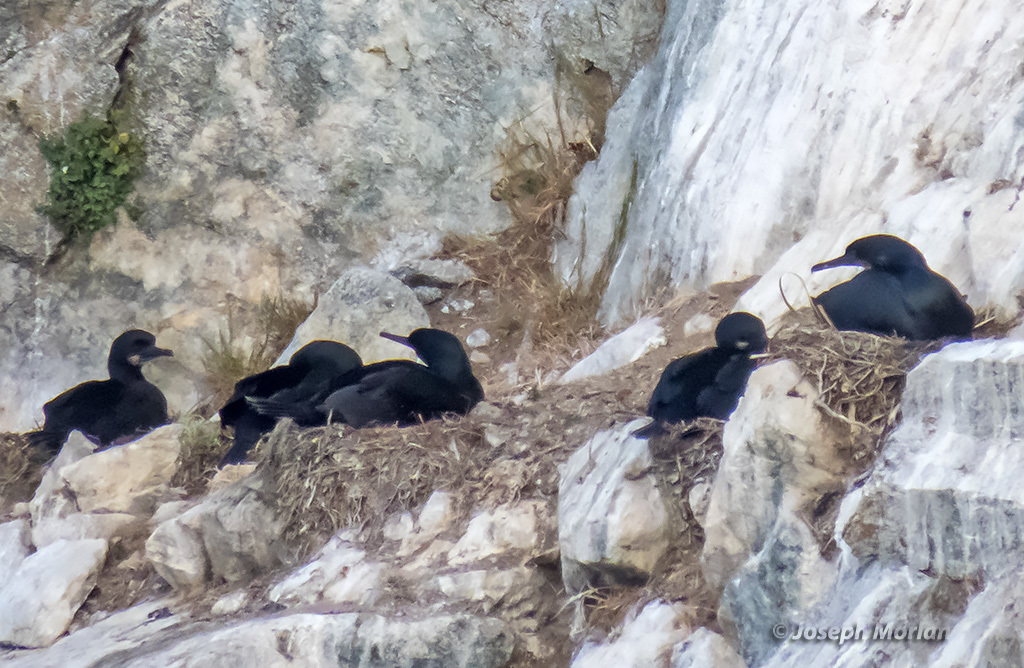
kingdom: Animalia
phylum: Chordata
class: Aves
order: Suliformes
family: Phalacrocoracidae
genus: Urile
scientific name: Urile penicillatus
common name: Brandt's cormorant
